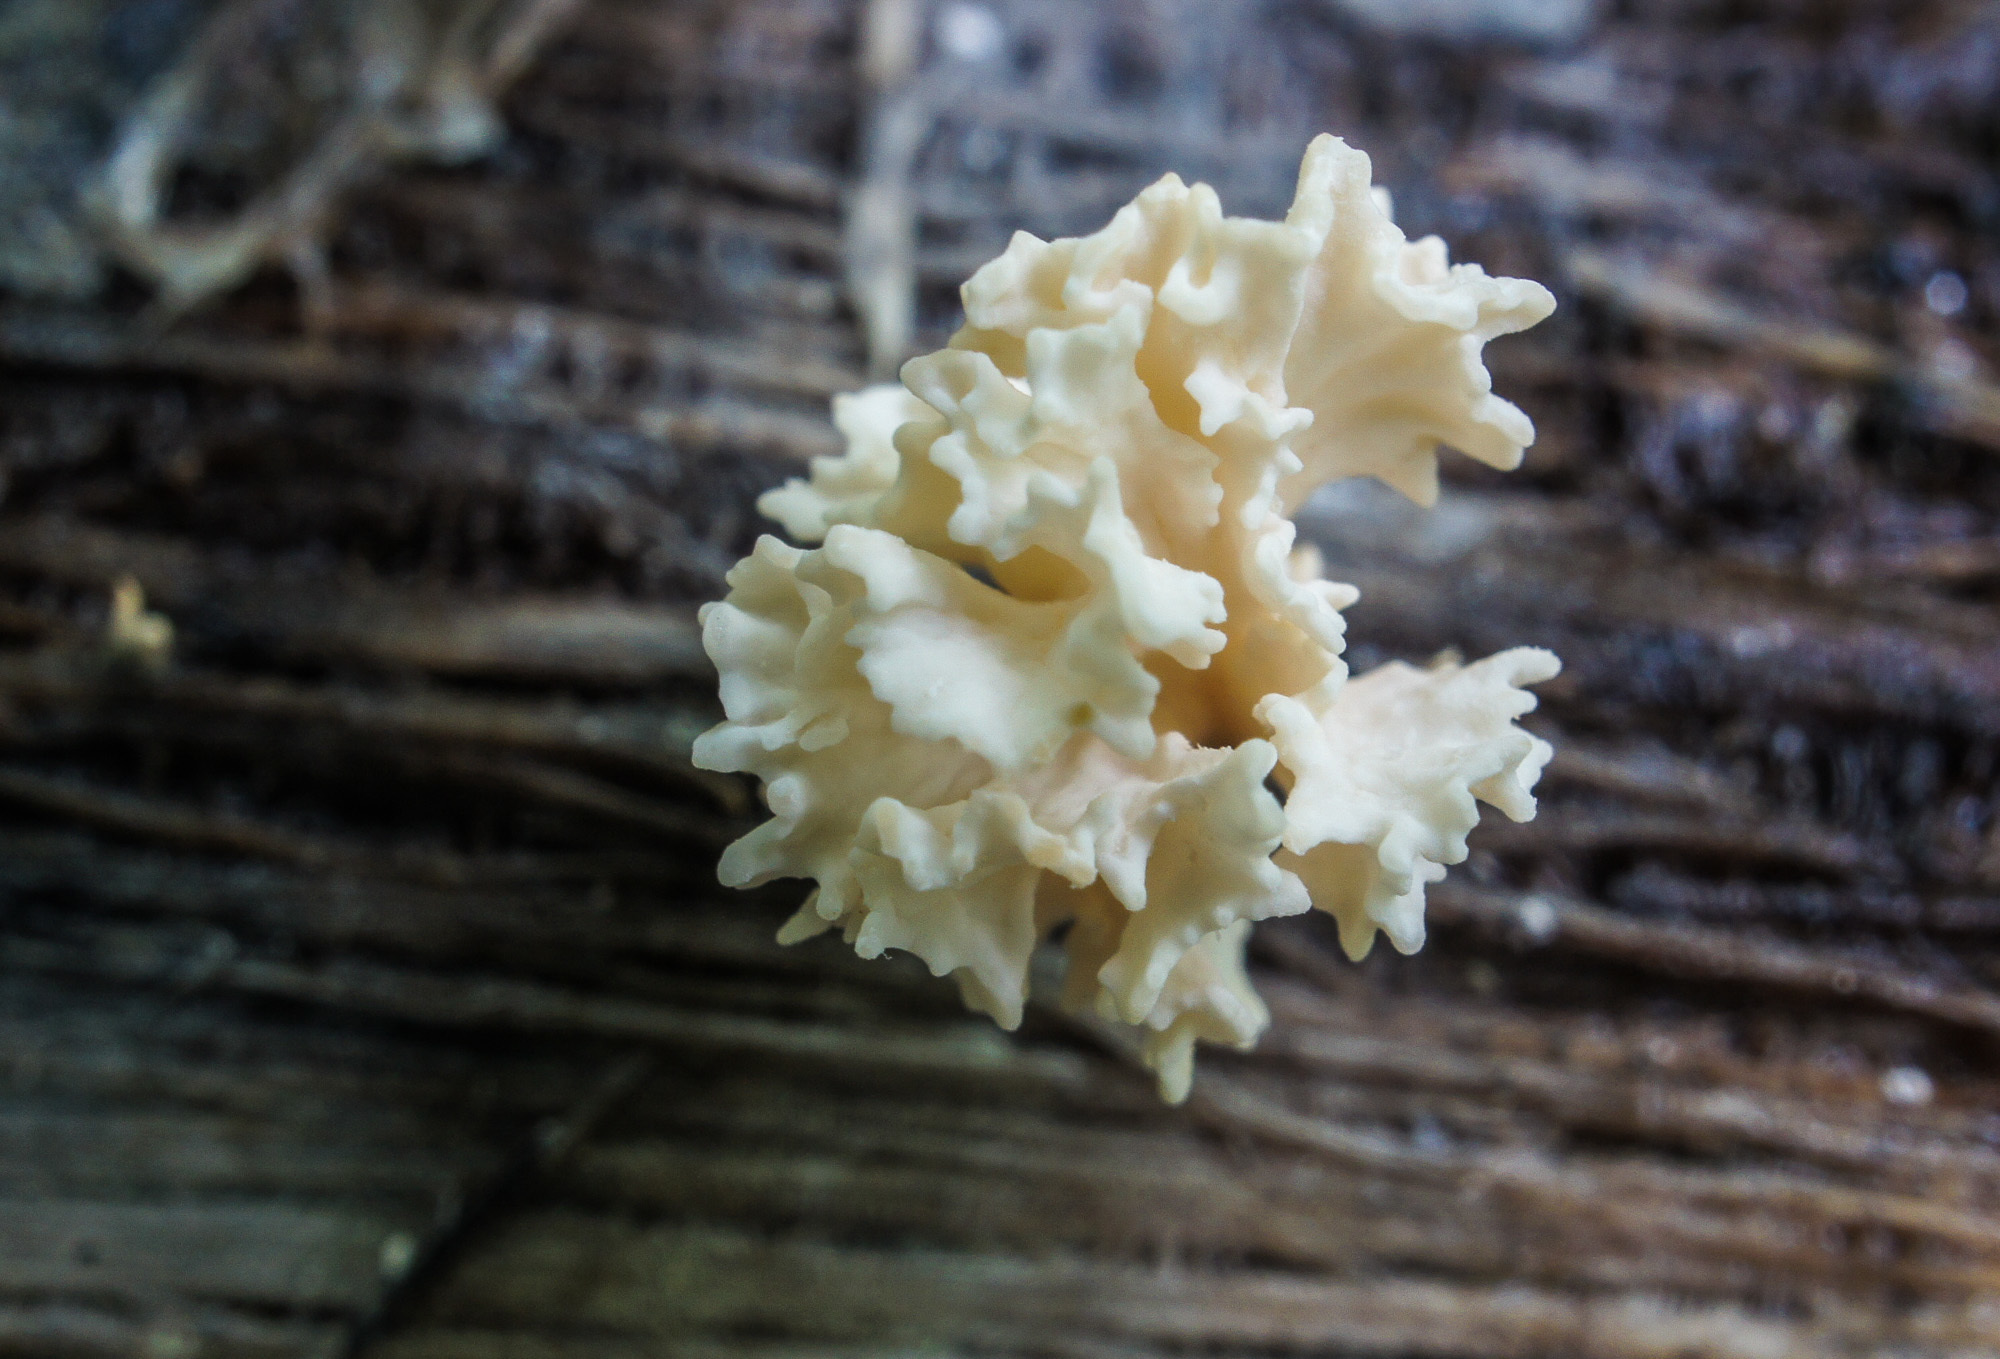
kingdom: Fungi
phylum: Ascomycota
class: Sordariomycetes
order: Xylariales
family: Xylariaceae
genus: Xylaria
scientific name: Xylaria cubensis
